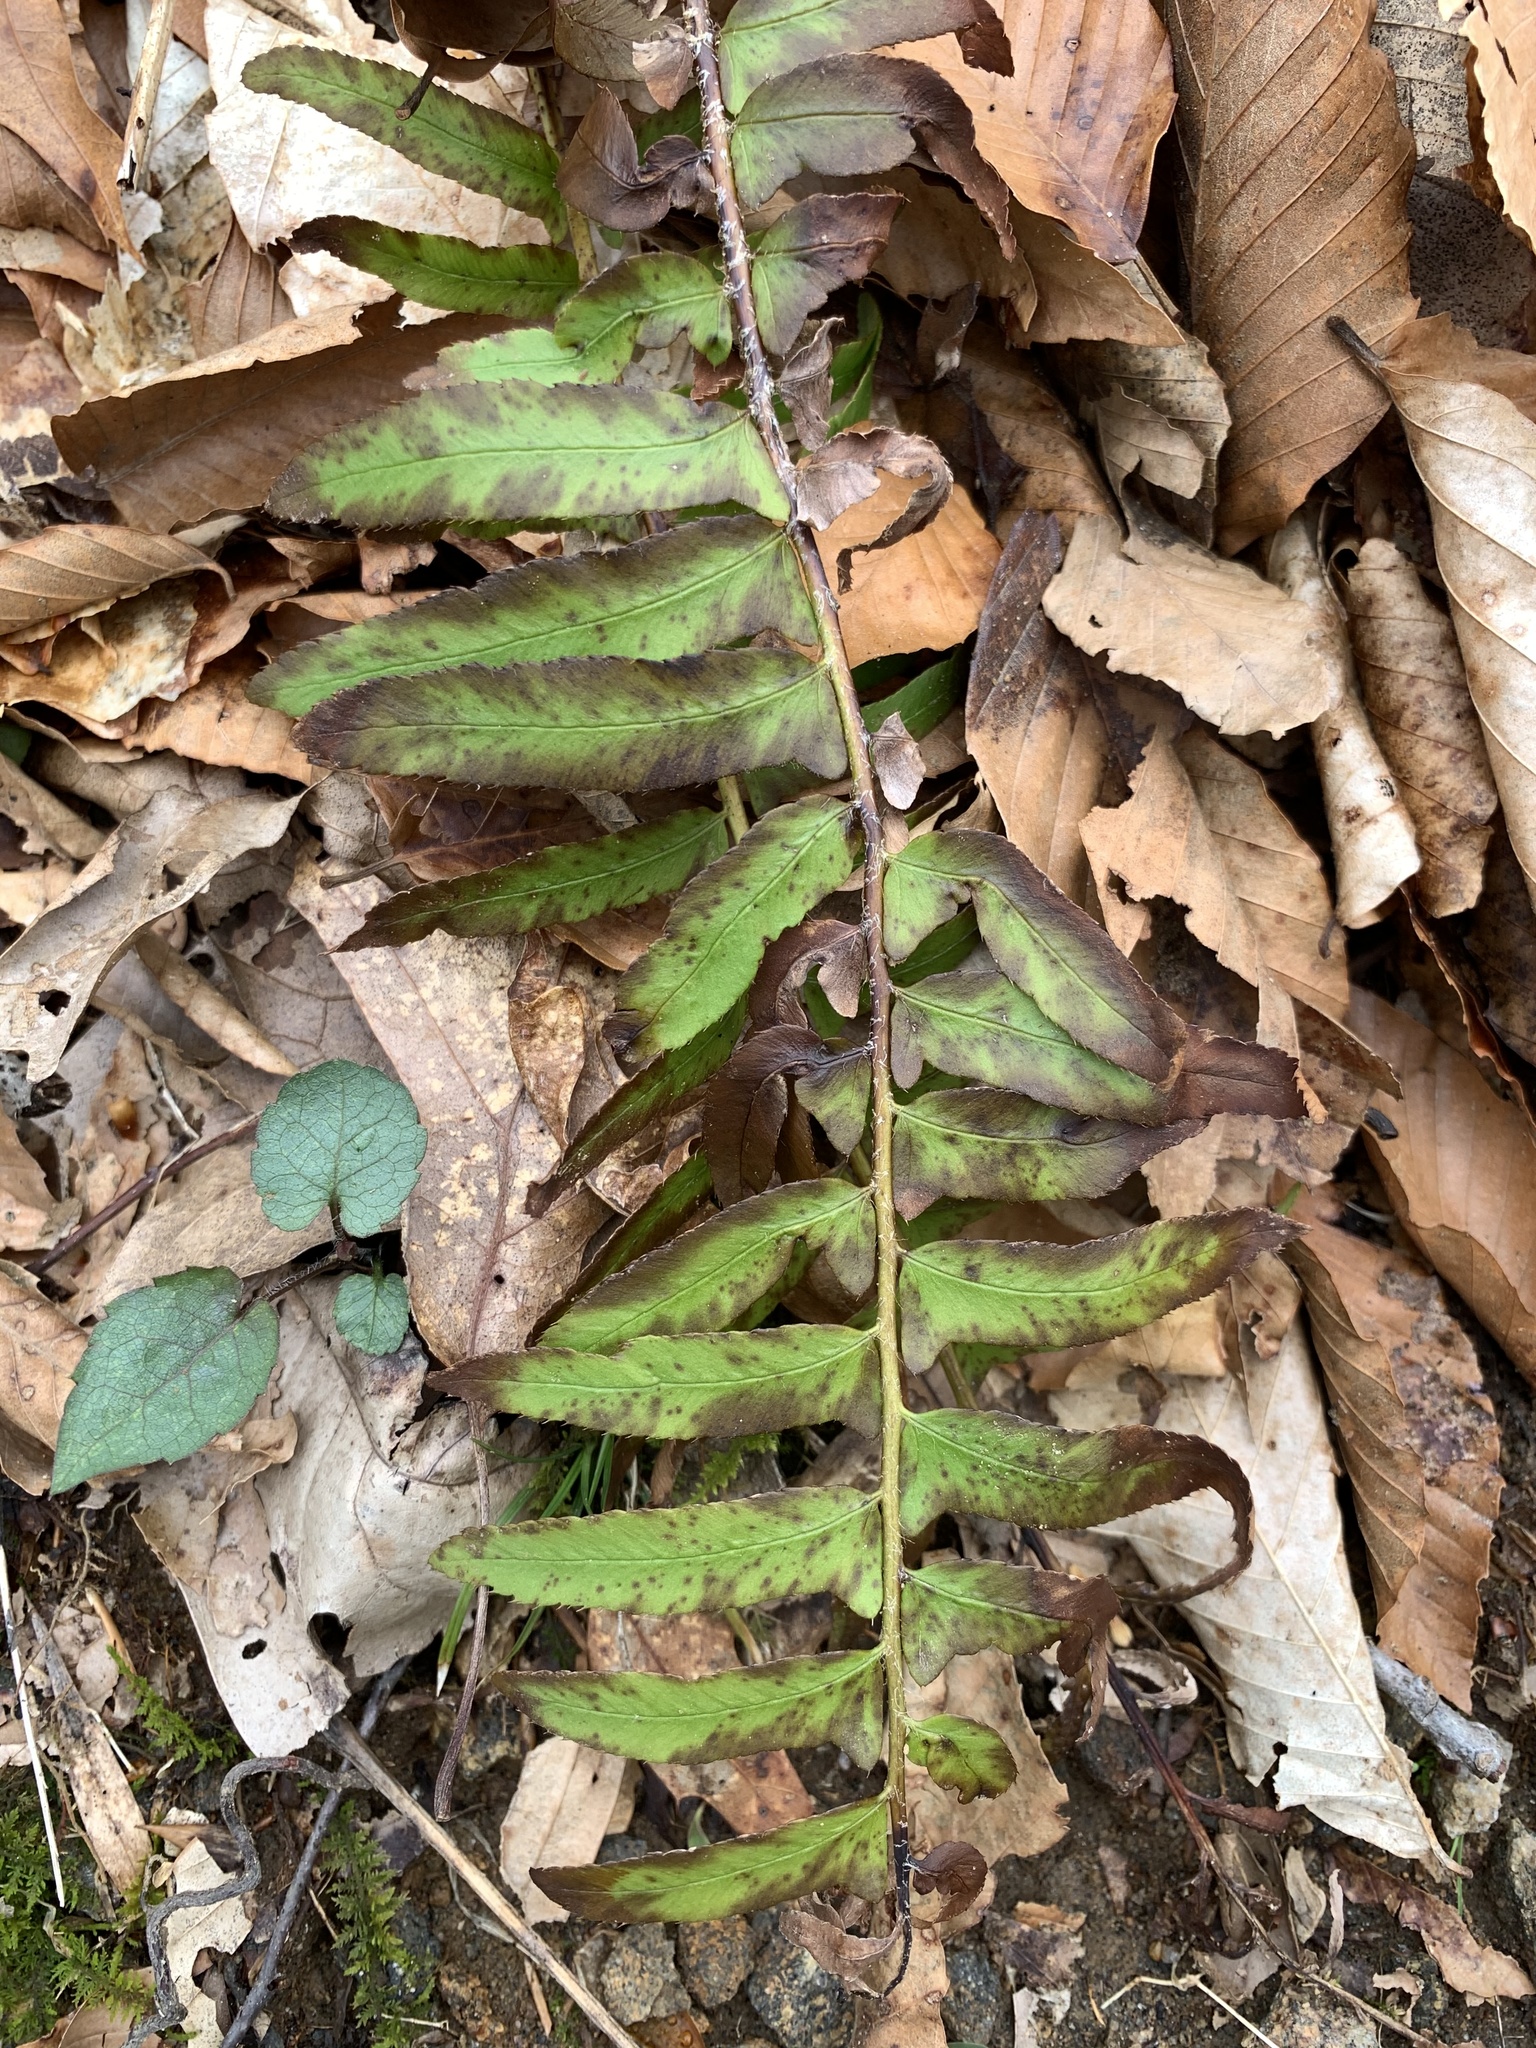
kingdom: Plantae
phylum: Tracheophyta
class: Polypodiopsida
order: Polypodiales
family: Dryopteridaceae
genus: Polystichum
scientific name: Polystichum acrostichoides
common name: Christmas fern
